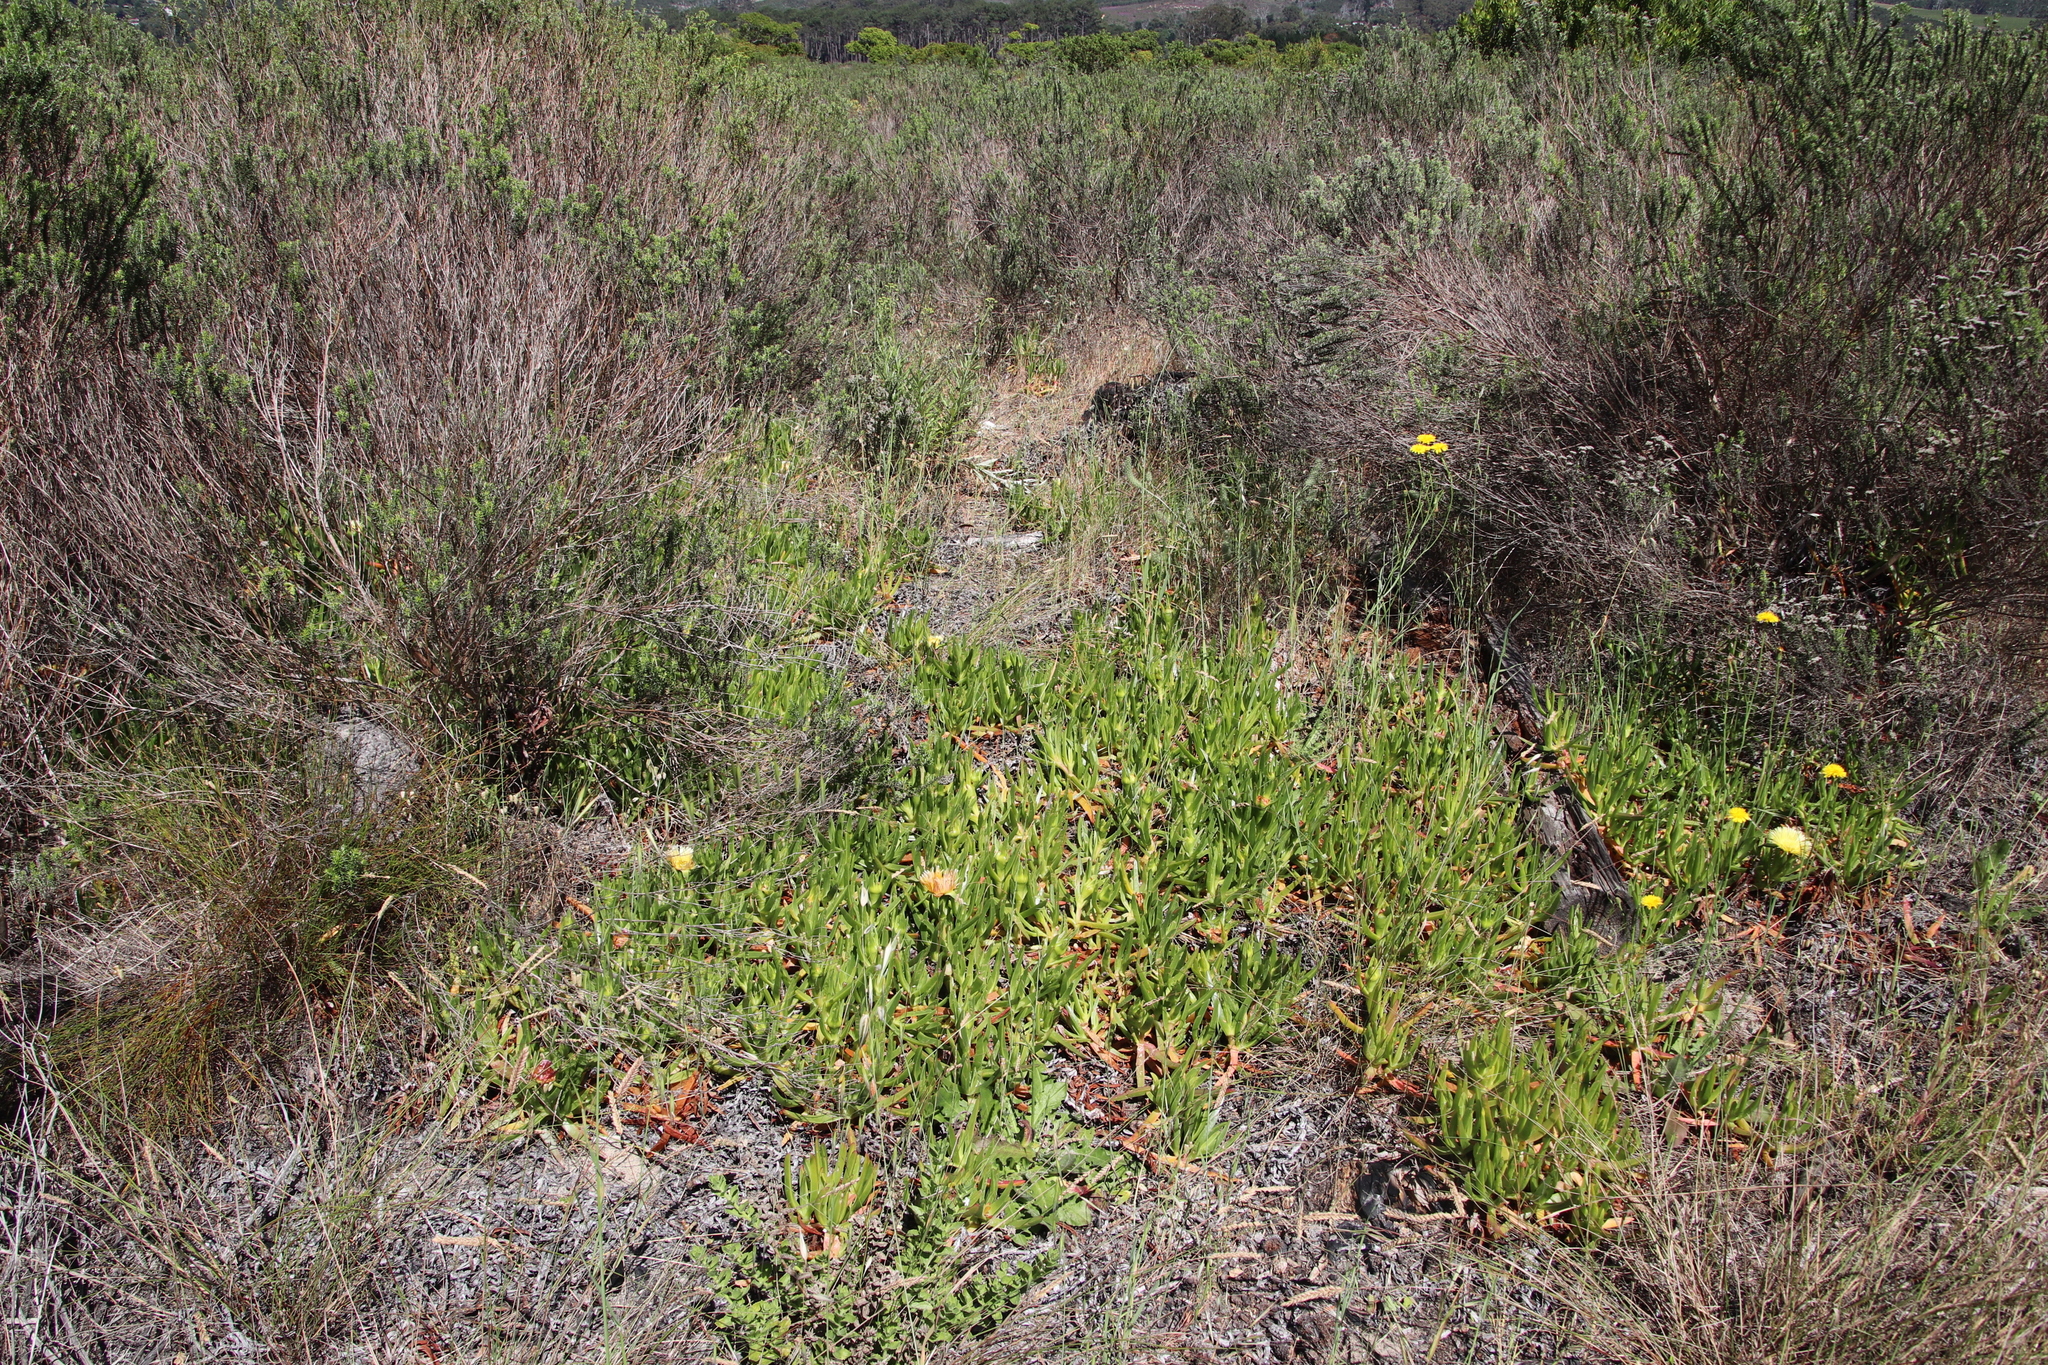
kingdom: Plantae
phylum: Tracheophyta
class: Magnoliopsida
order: Caryophyllales
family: Aizoaceae
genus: Carpobrotus
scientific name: Carpobrotus edulis
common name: Hottentot-fig
